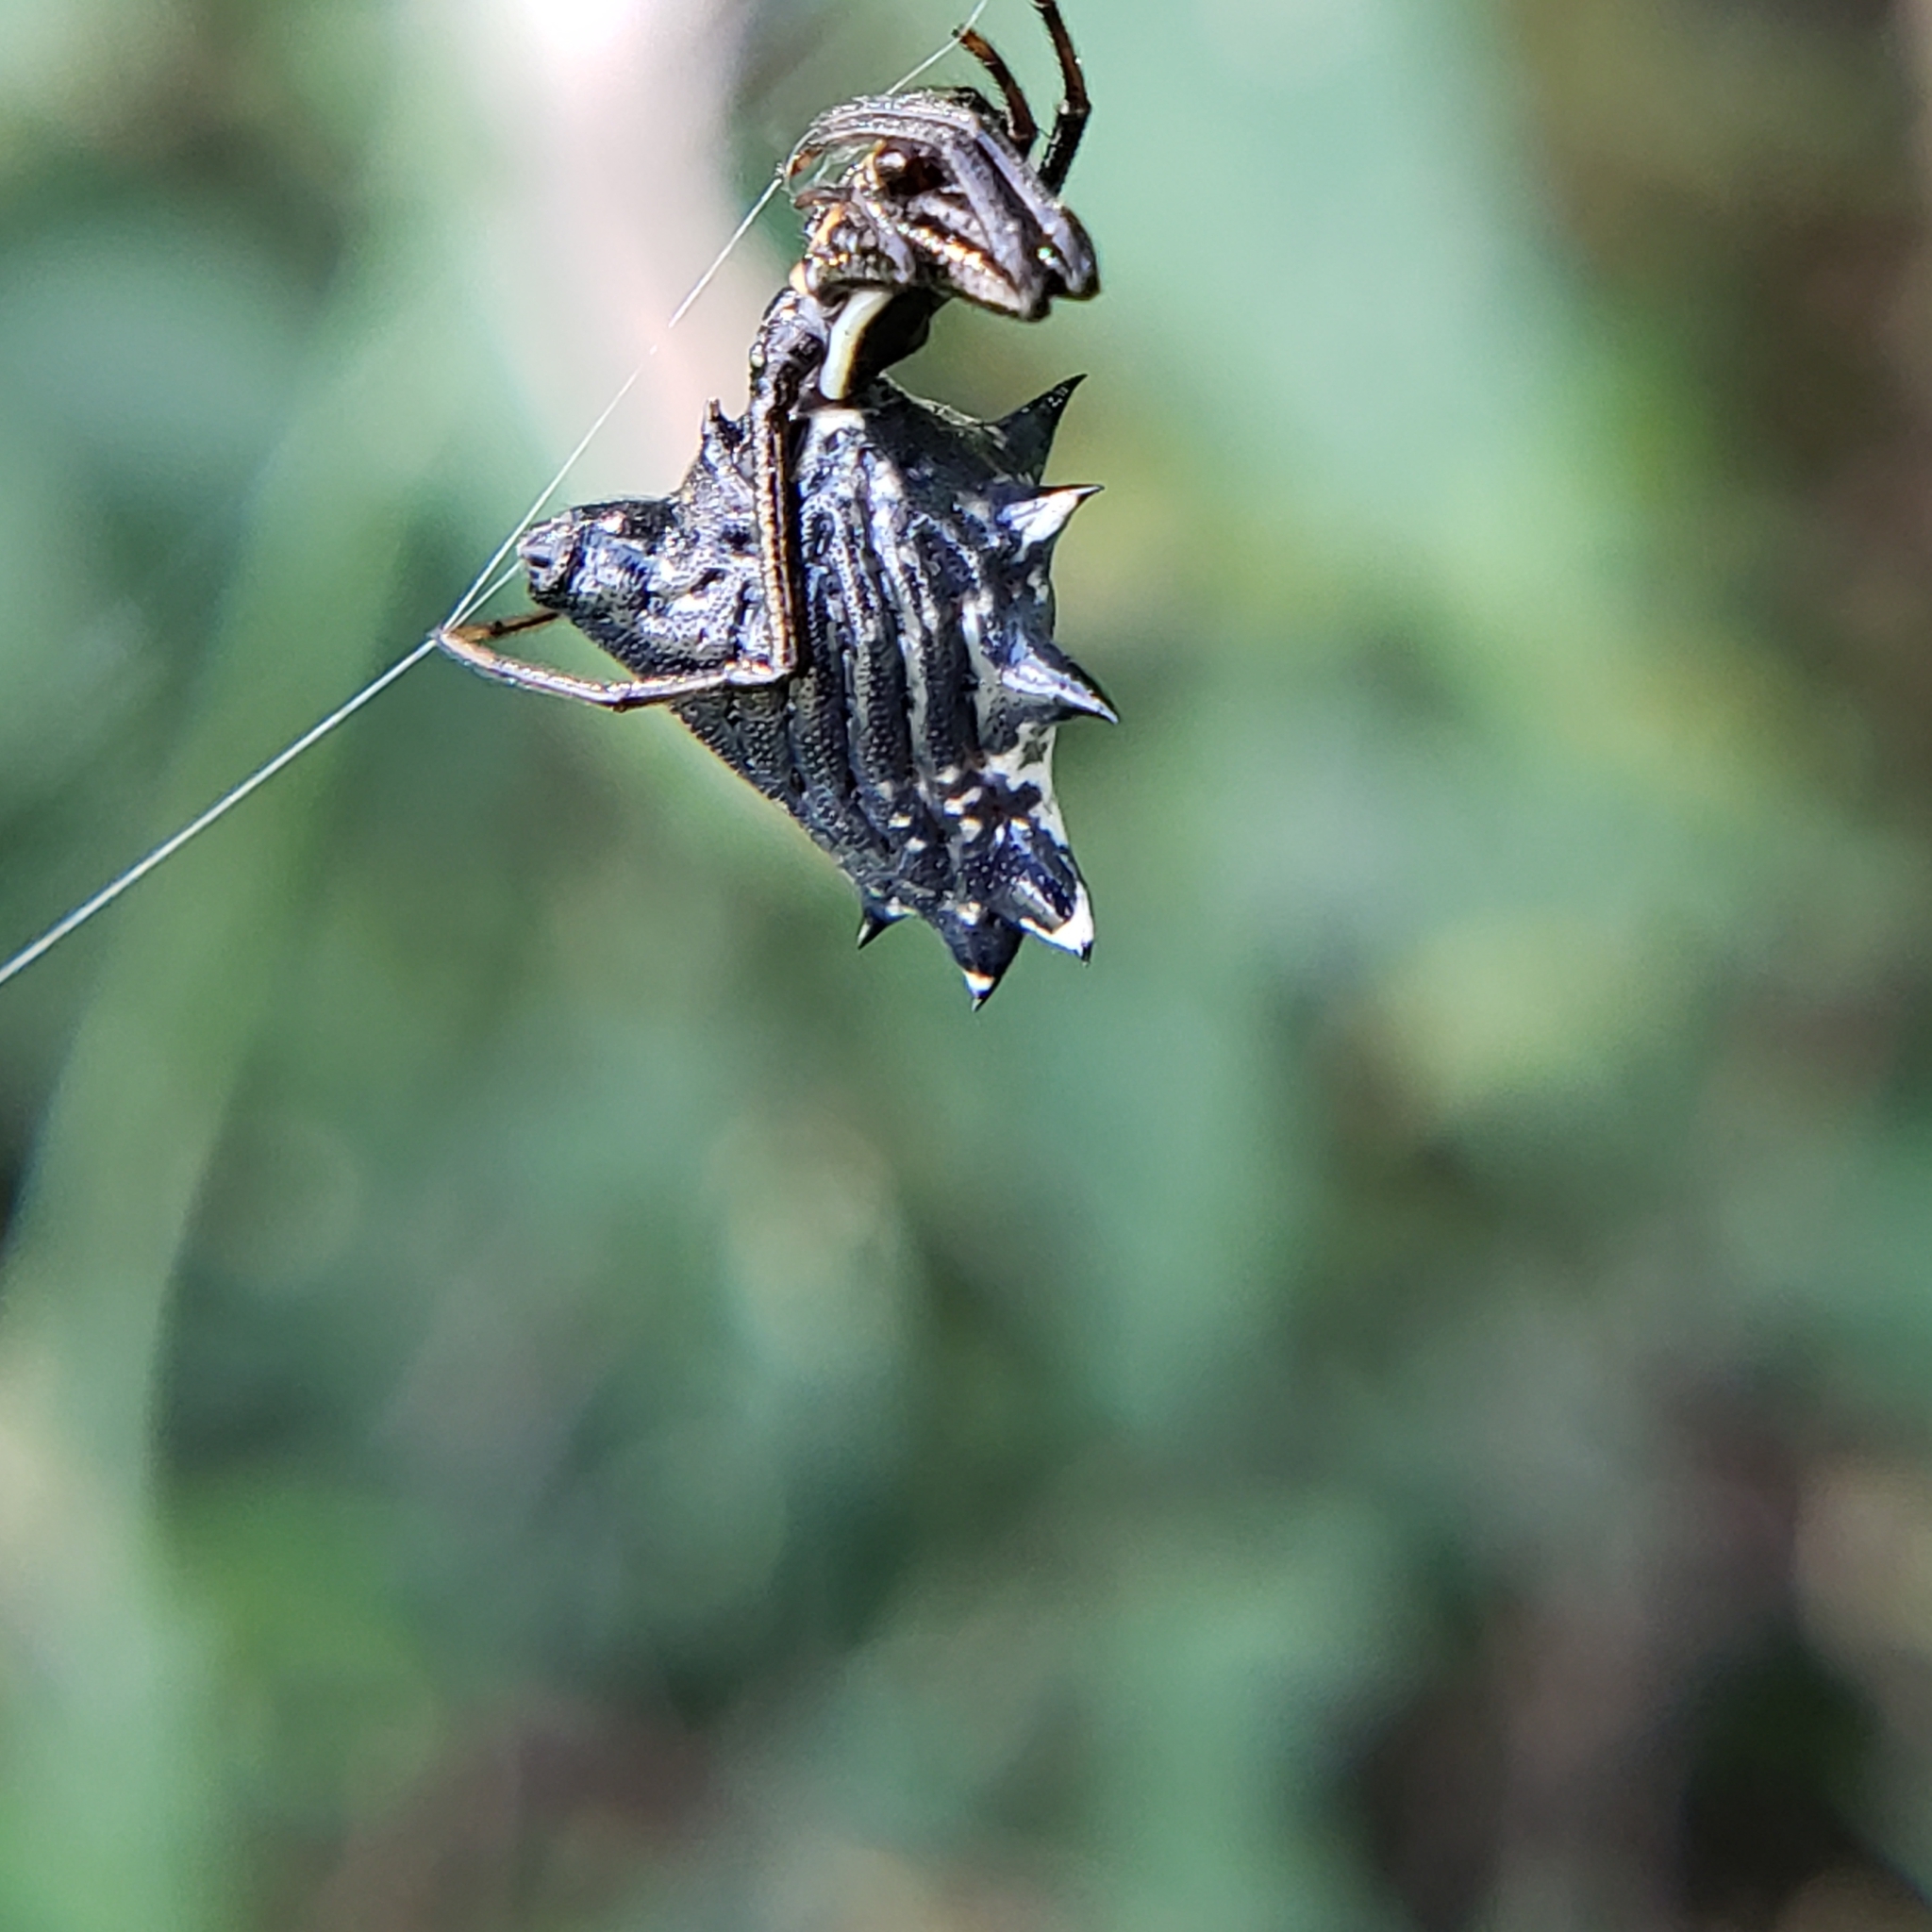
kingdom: Animalia
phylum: Arthropoda
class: Arachnida
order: Araneae
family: Araneidae
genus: Micrathena
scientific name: Micrathena gracilis
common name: Orb weavers
